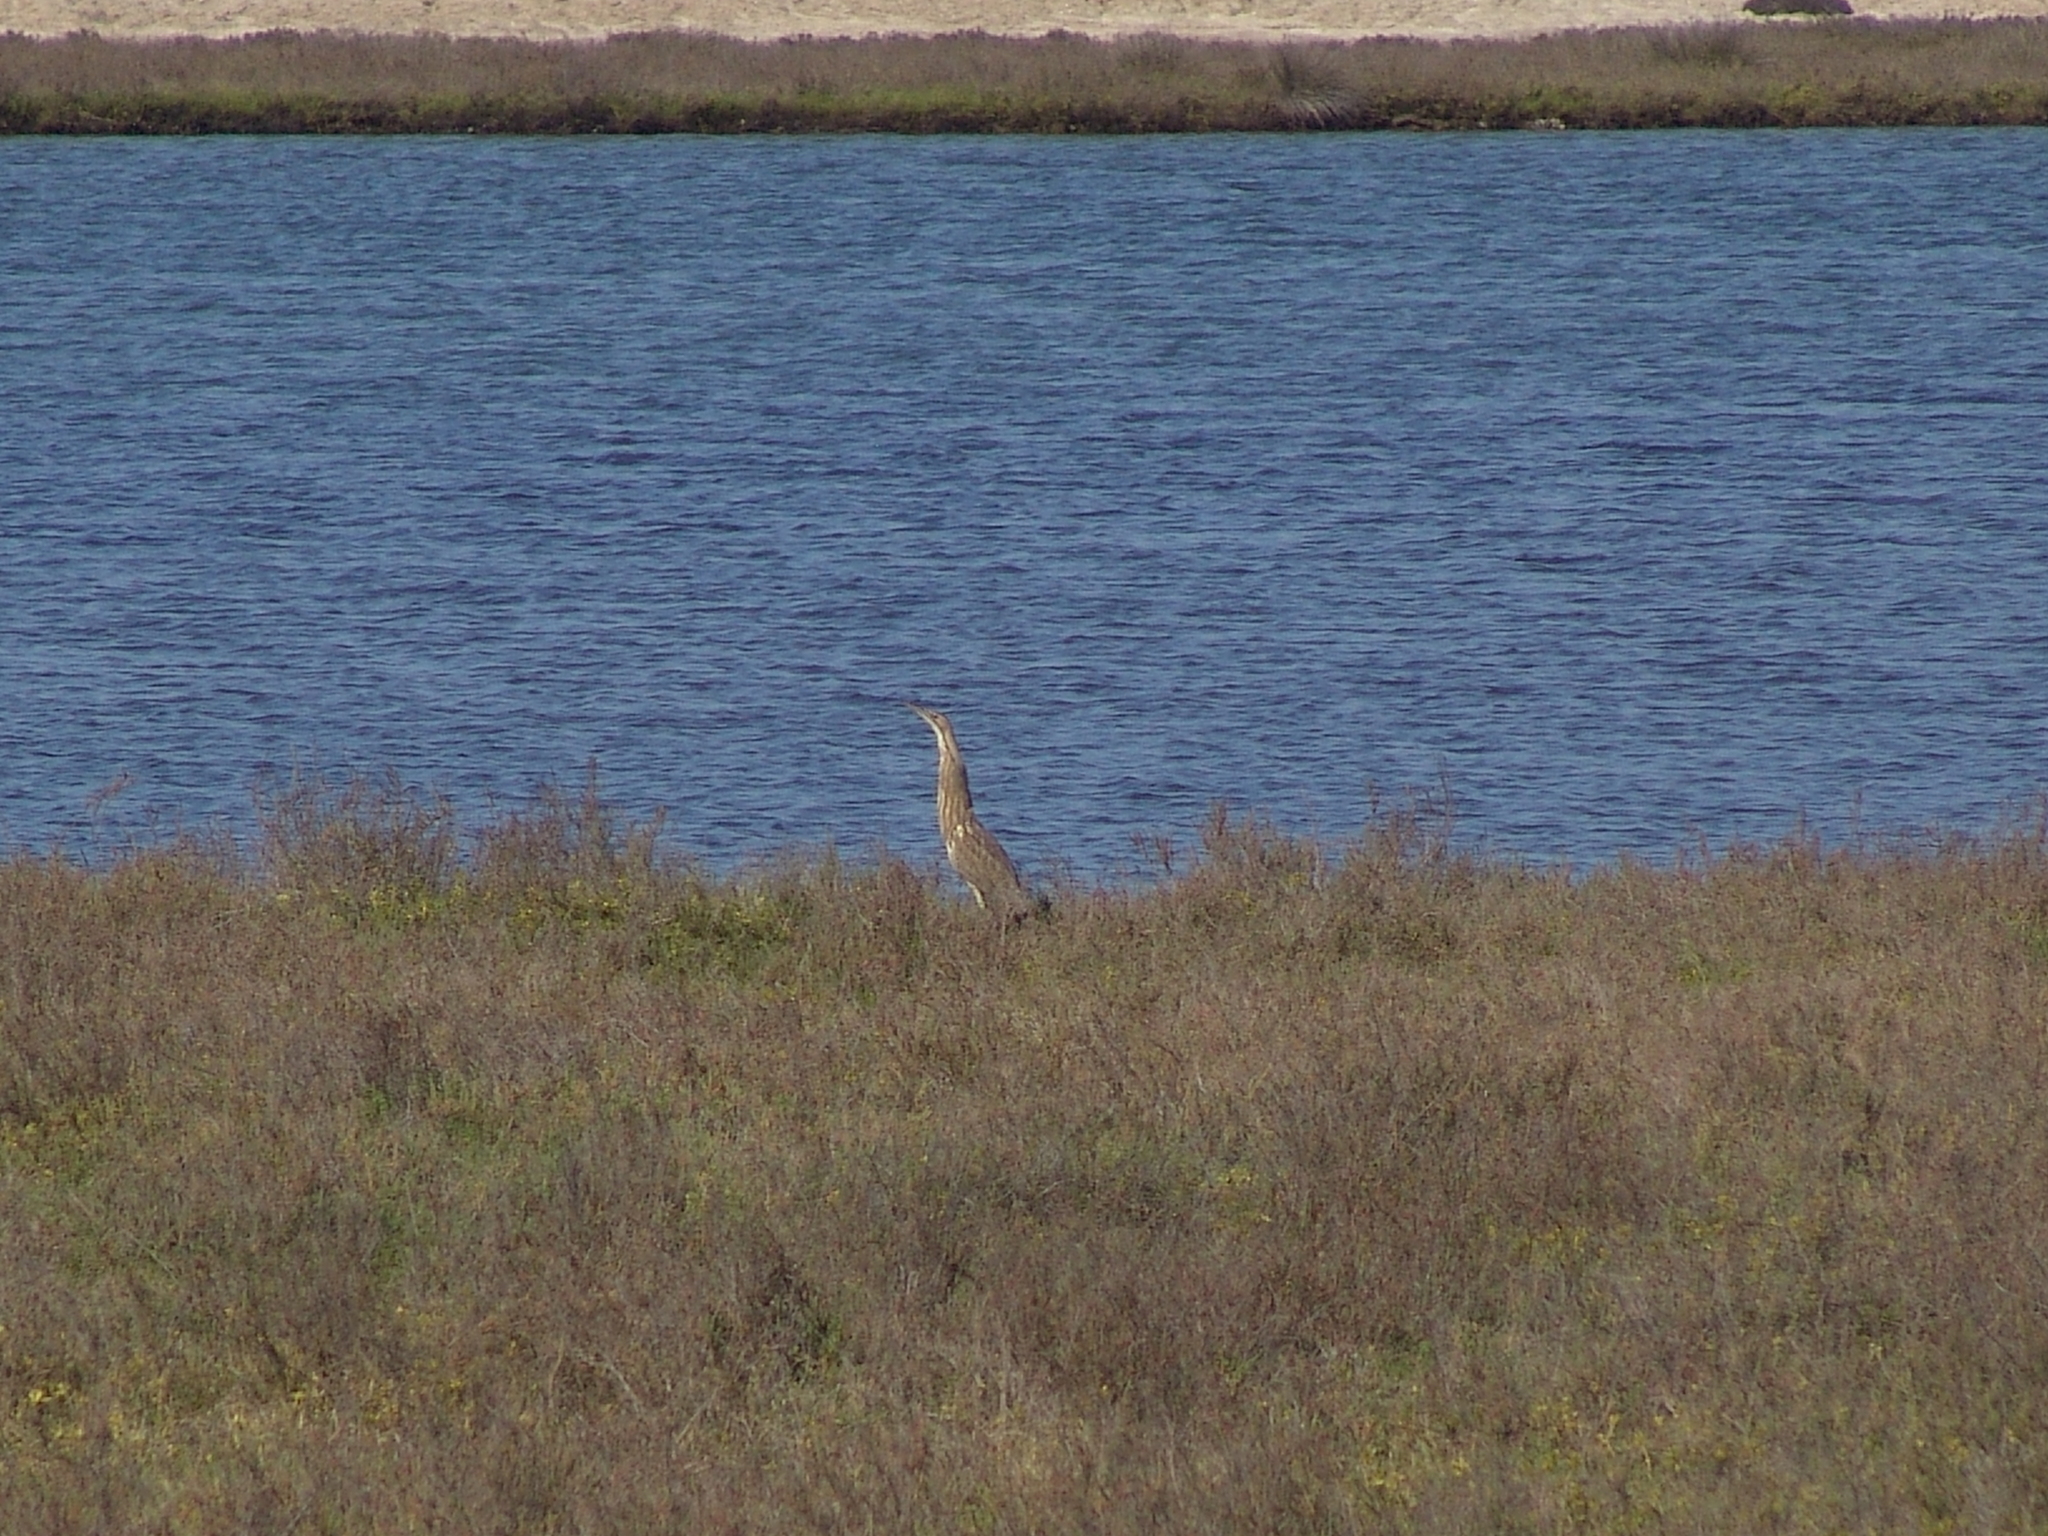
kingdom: Animalia
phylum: Chordata
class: Aves
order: Pelecaniformes
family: Ardeidae
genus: Botaurus
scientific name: Botaurus lentiginosus
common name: American bittern
